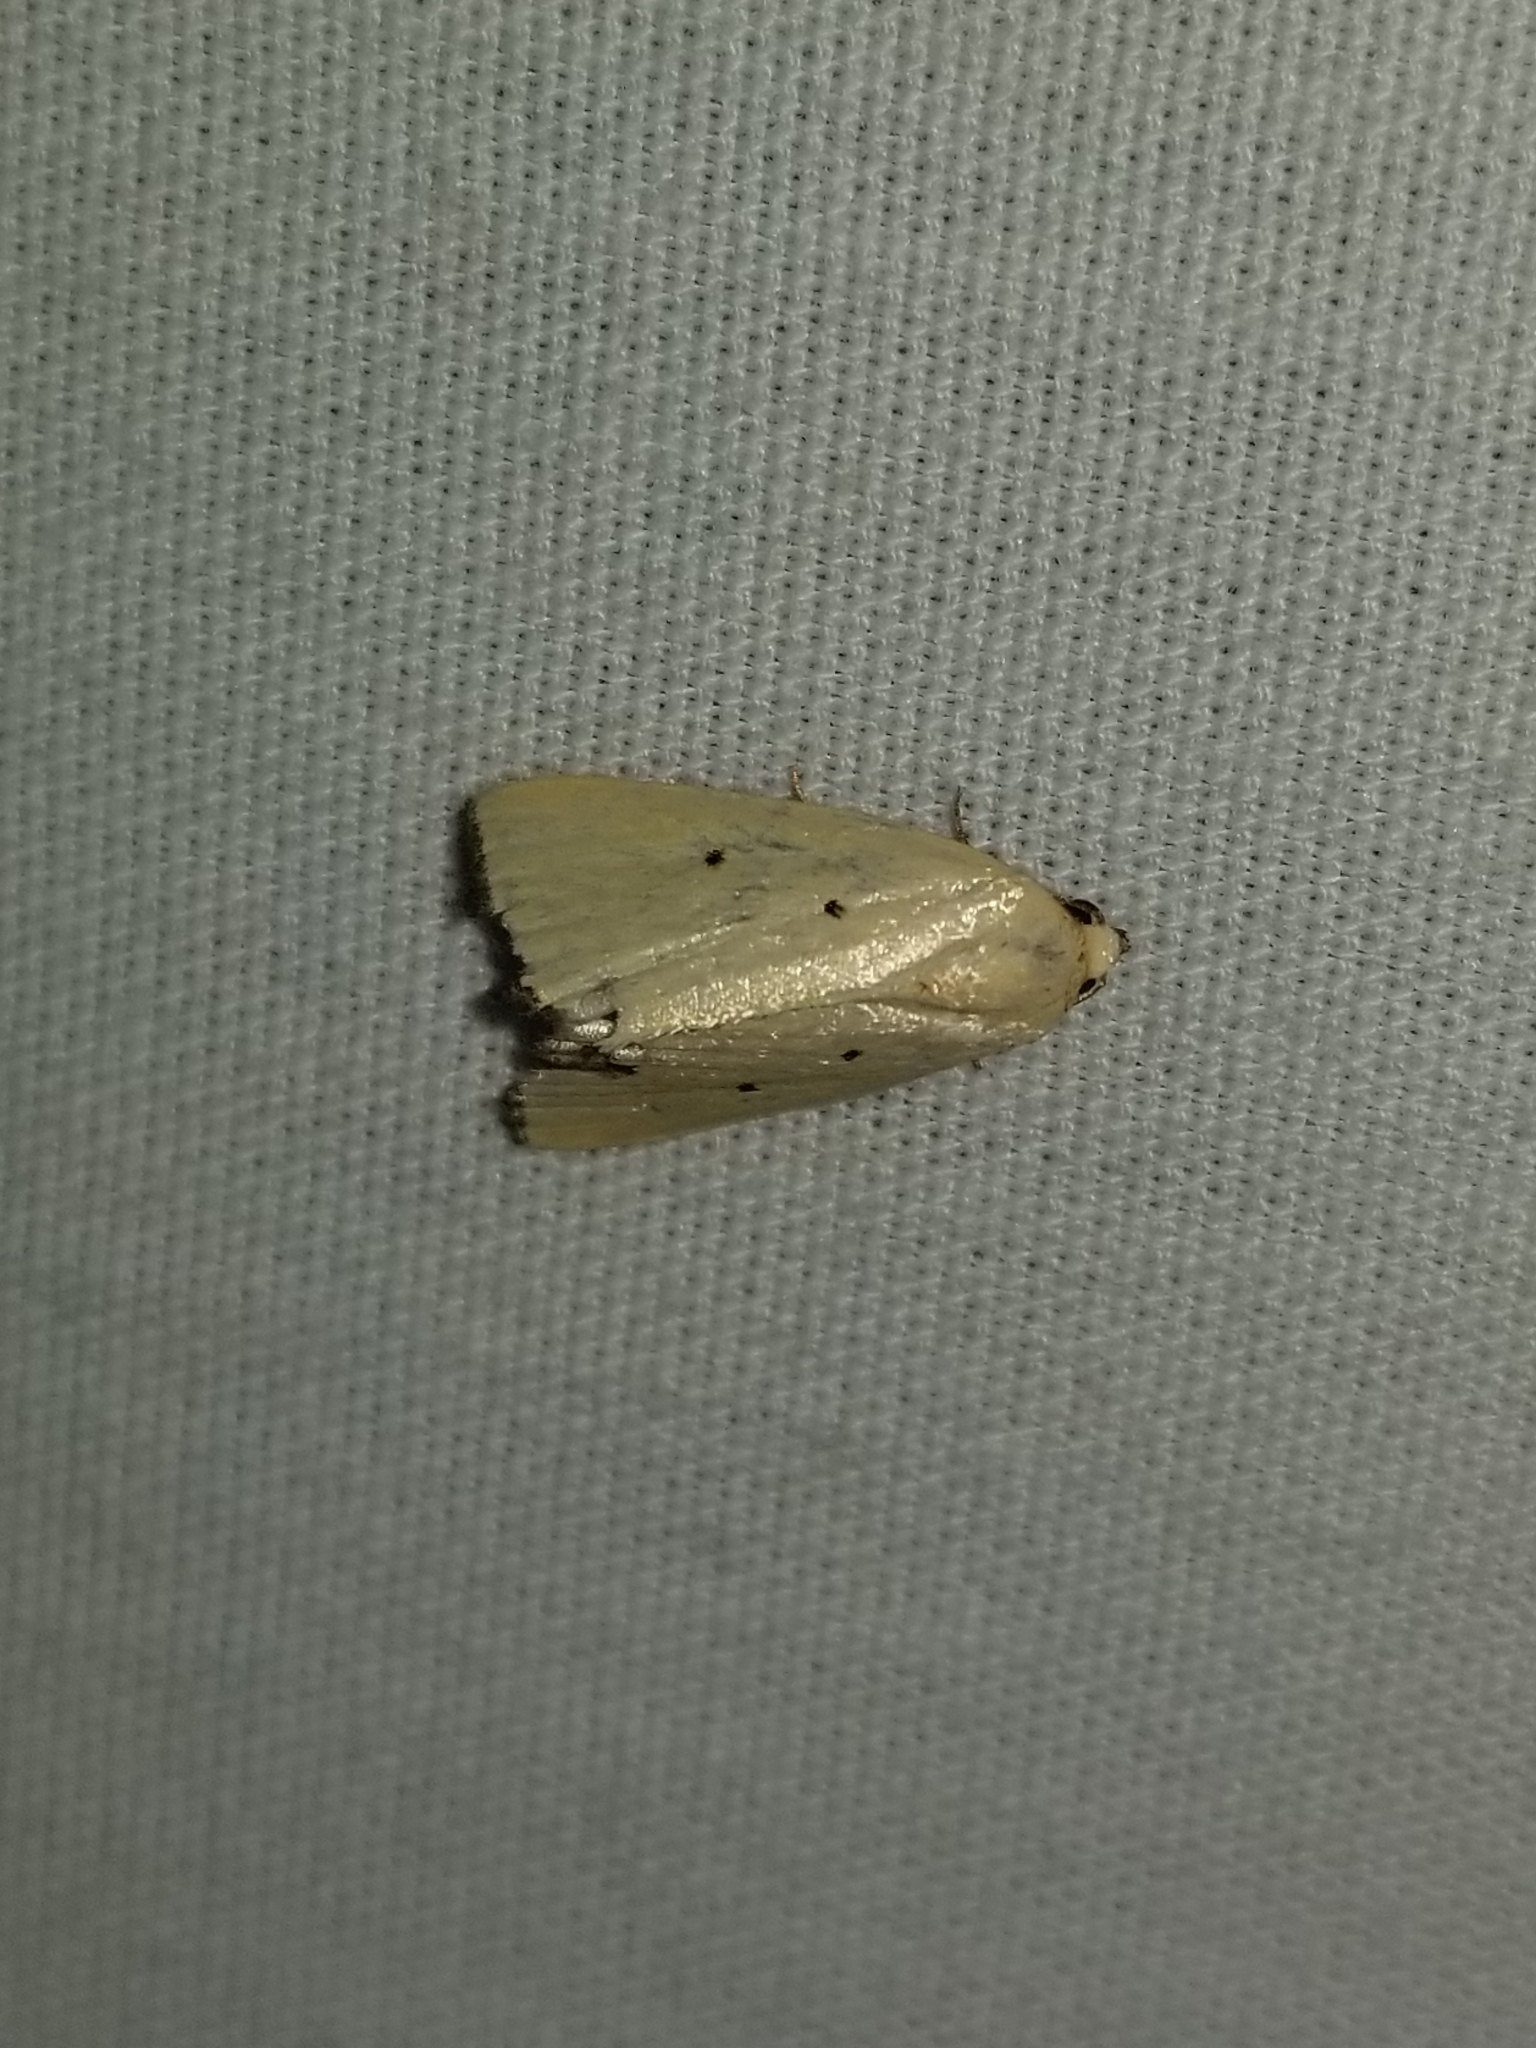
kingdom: Animalia
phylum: Arthropoda
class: Insecta
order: Lepidoptera
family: Noctuidae
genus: Marimatha
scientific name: Marimatha nigrofimbria
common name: Black-bordered lemon moth
